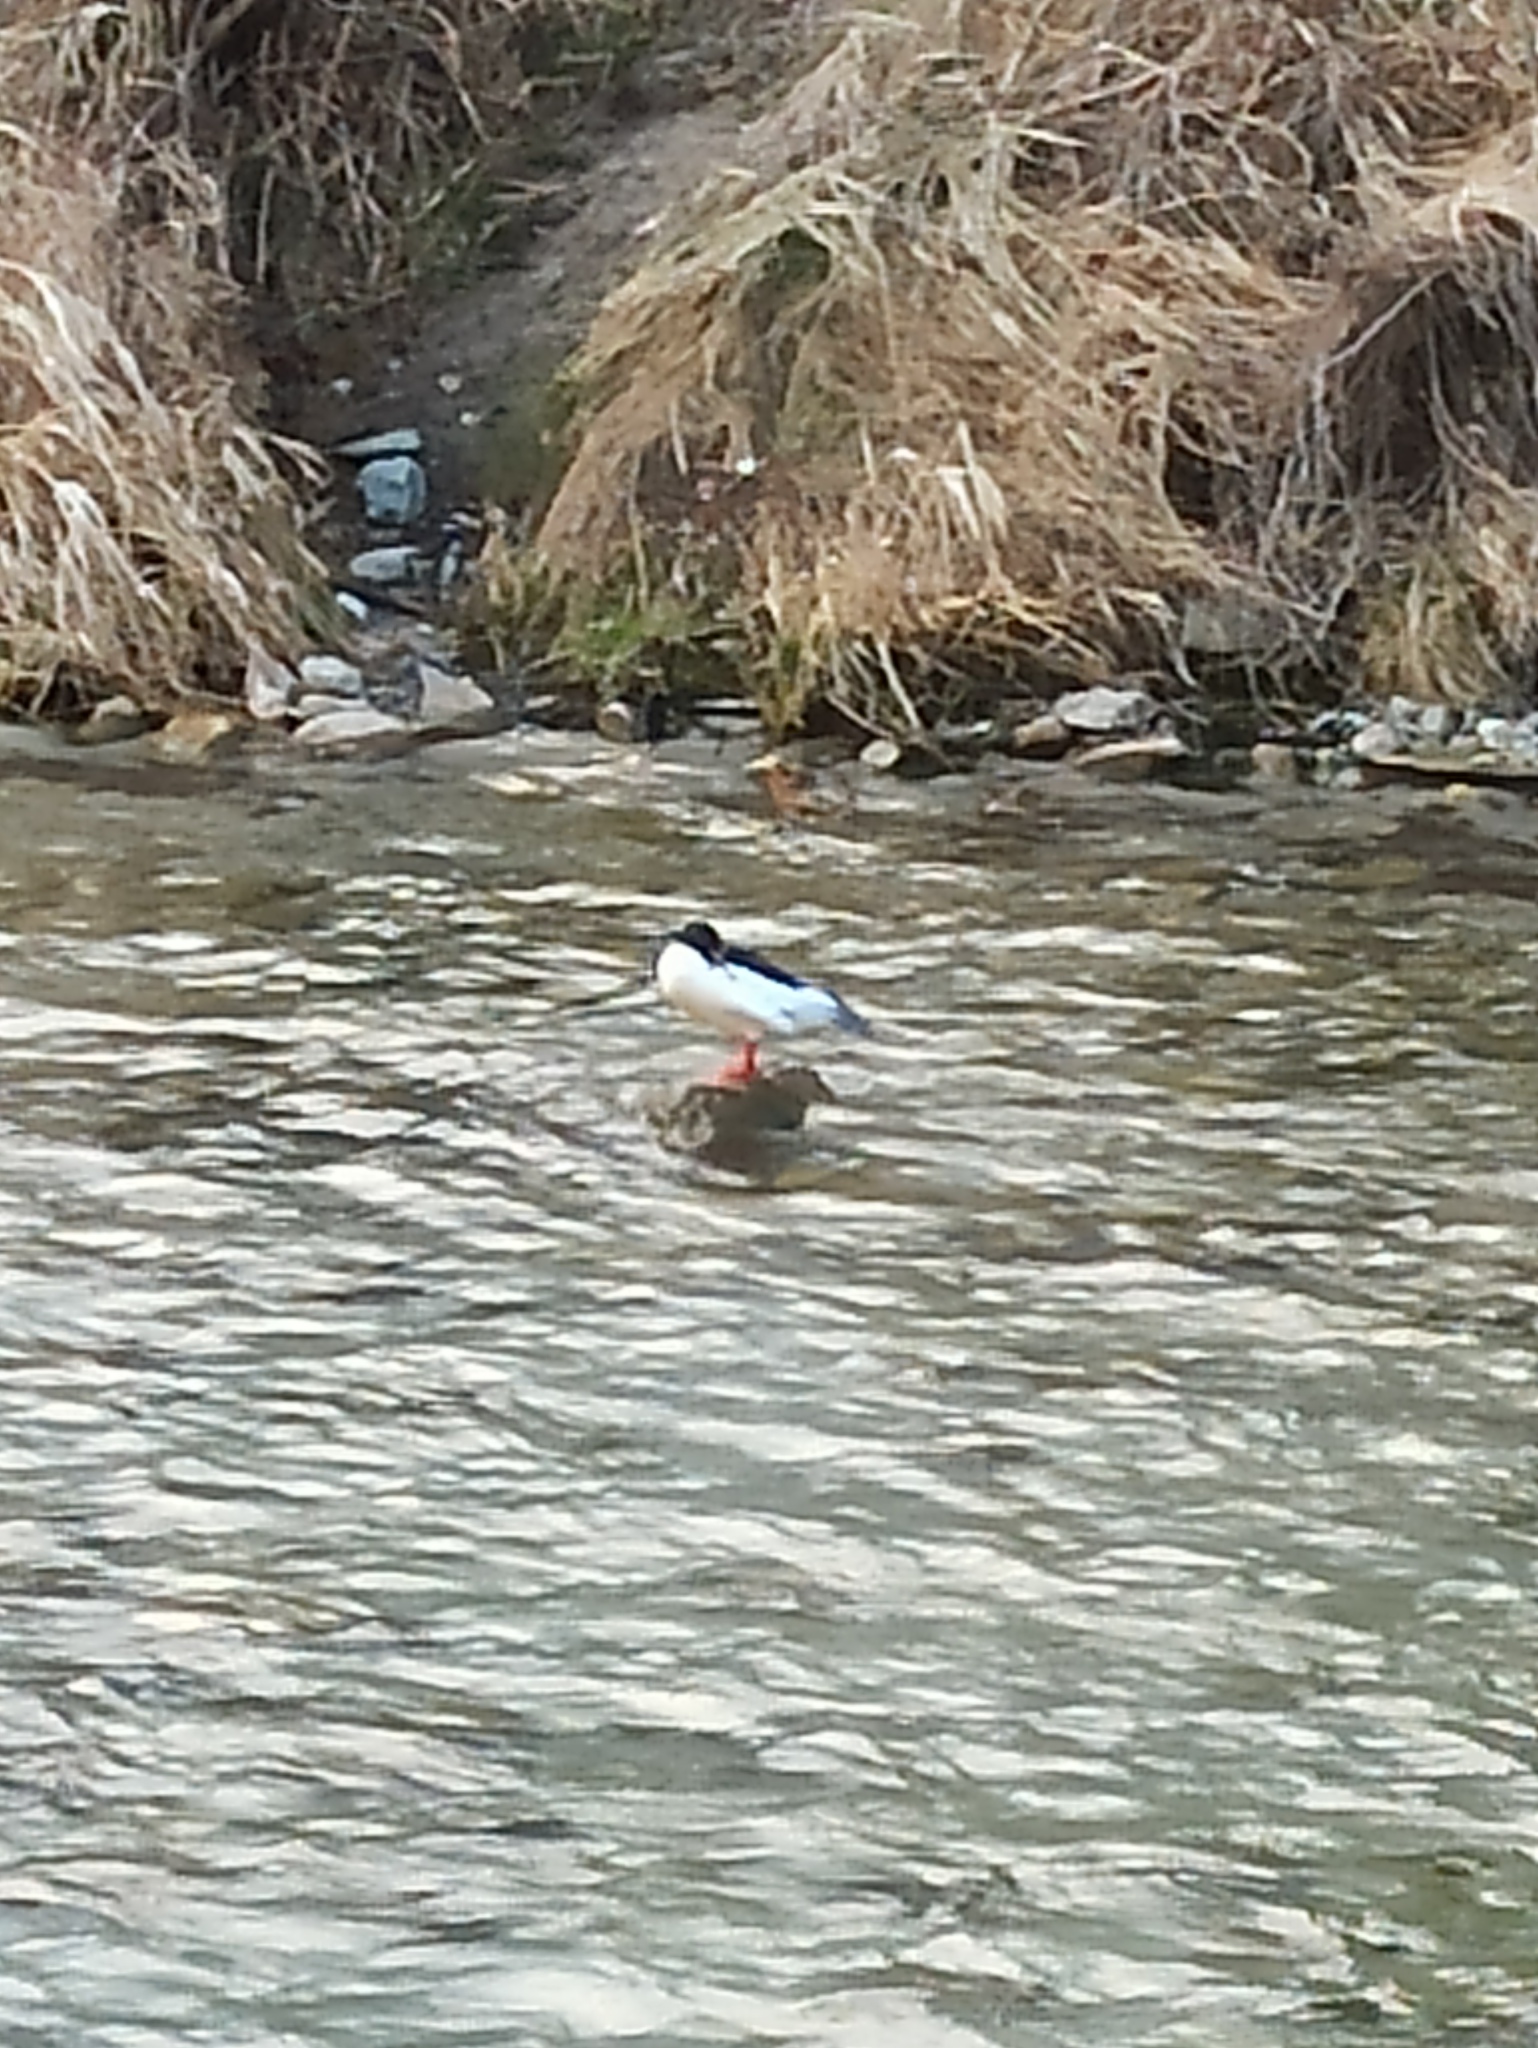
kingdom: Animalia
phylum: Chordata
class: Aves
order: Anseriformes
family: Anatidae
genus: Mergus
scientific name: Mergus merganser
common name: Common merganser
